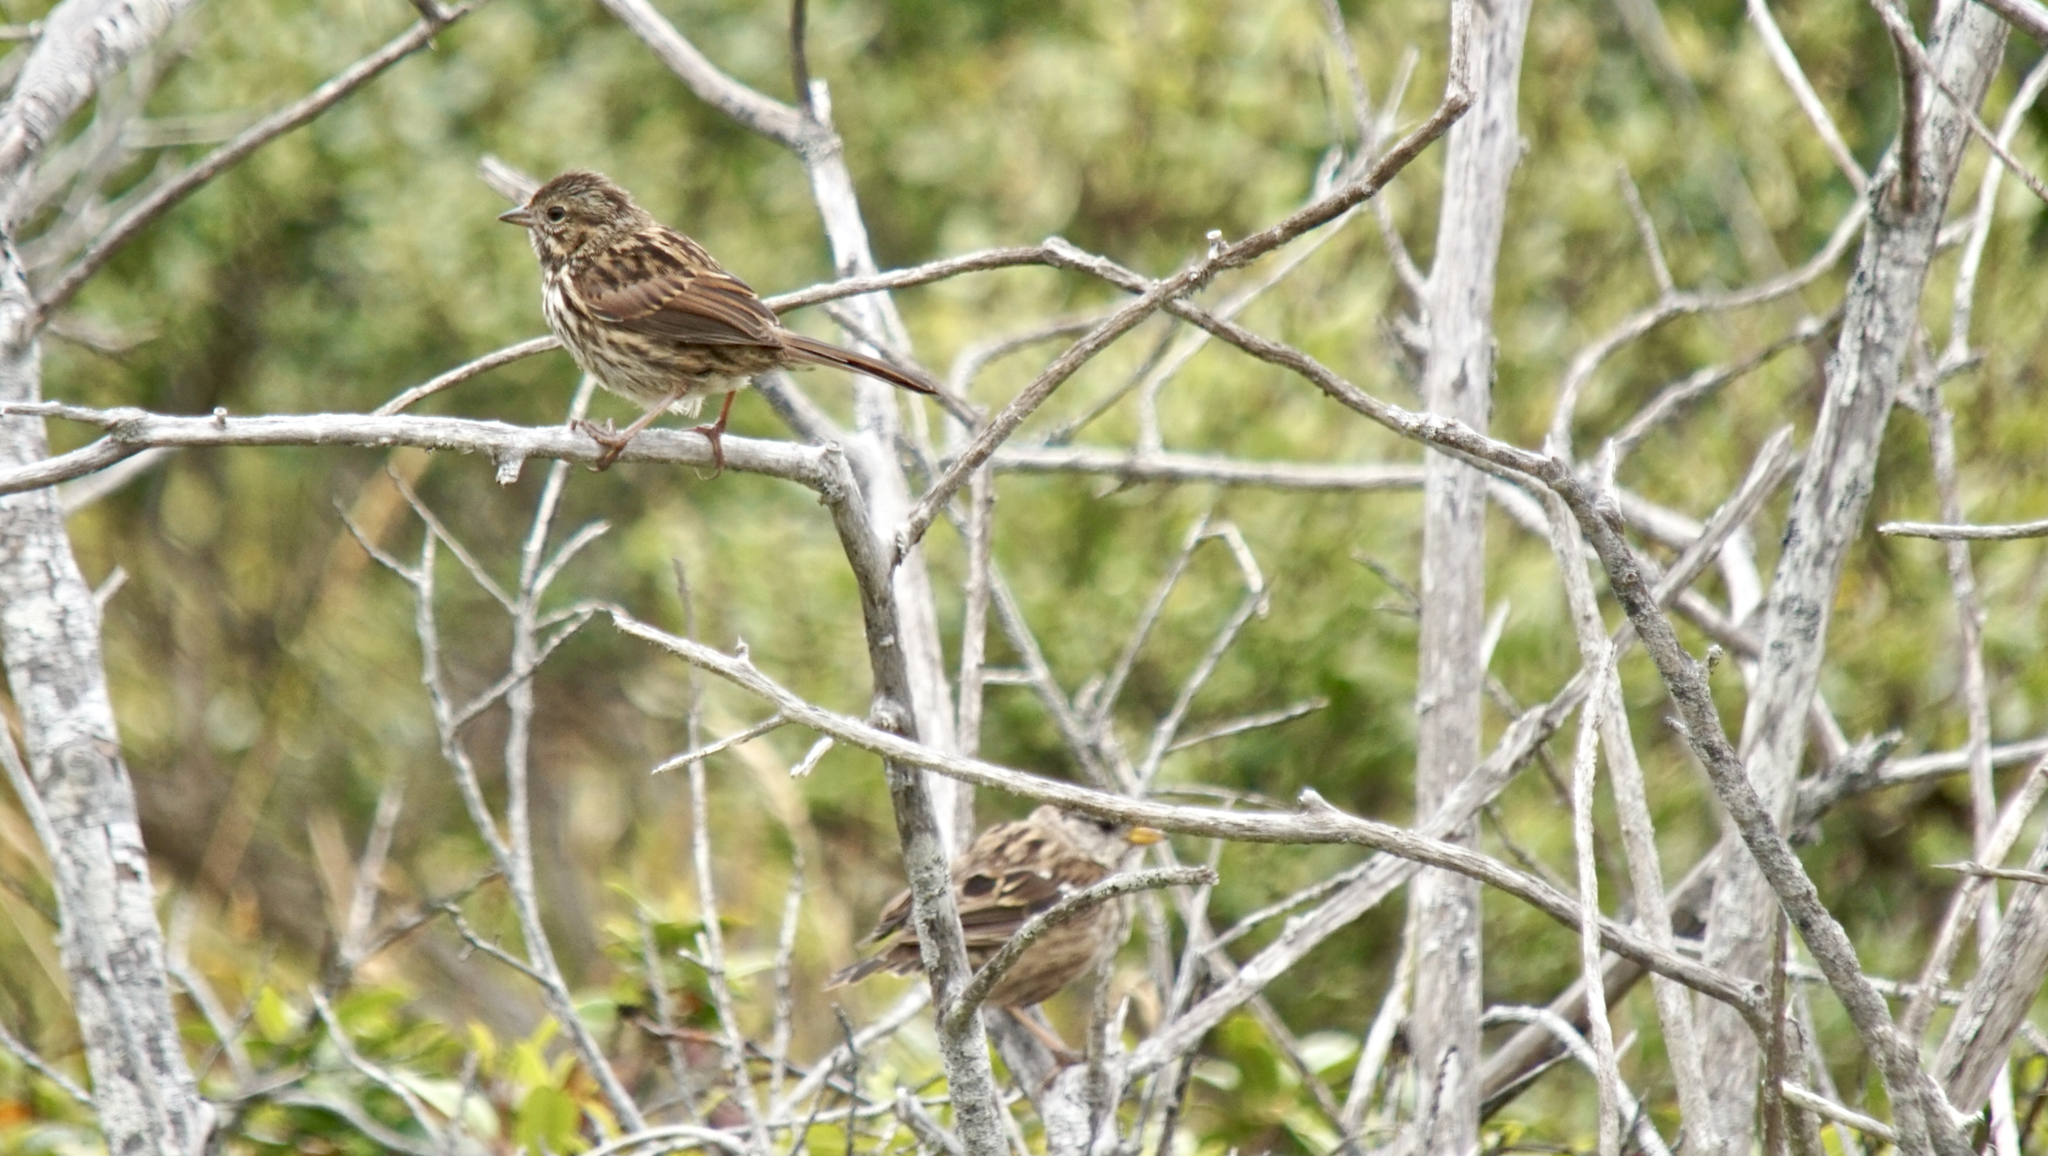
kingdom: Animalia
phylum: Chordata
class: Aves
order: Passeriformes
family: Passerellidae
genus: Melospiza
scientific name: Melospiza melodia
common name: Song sparrow
